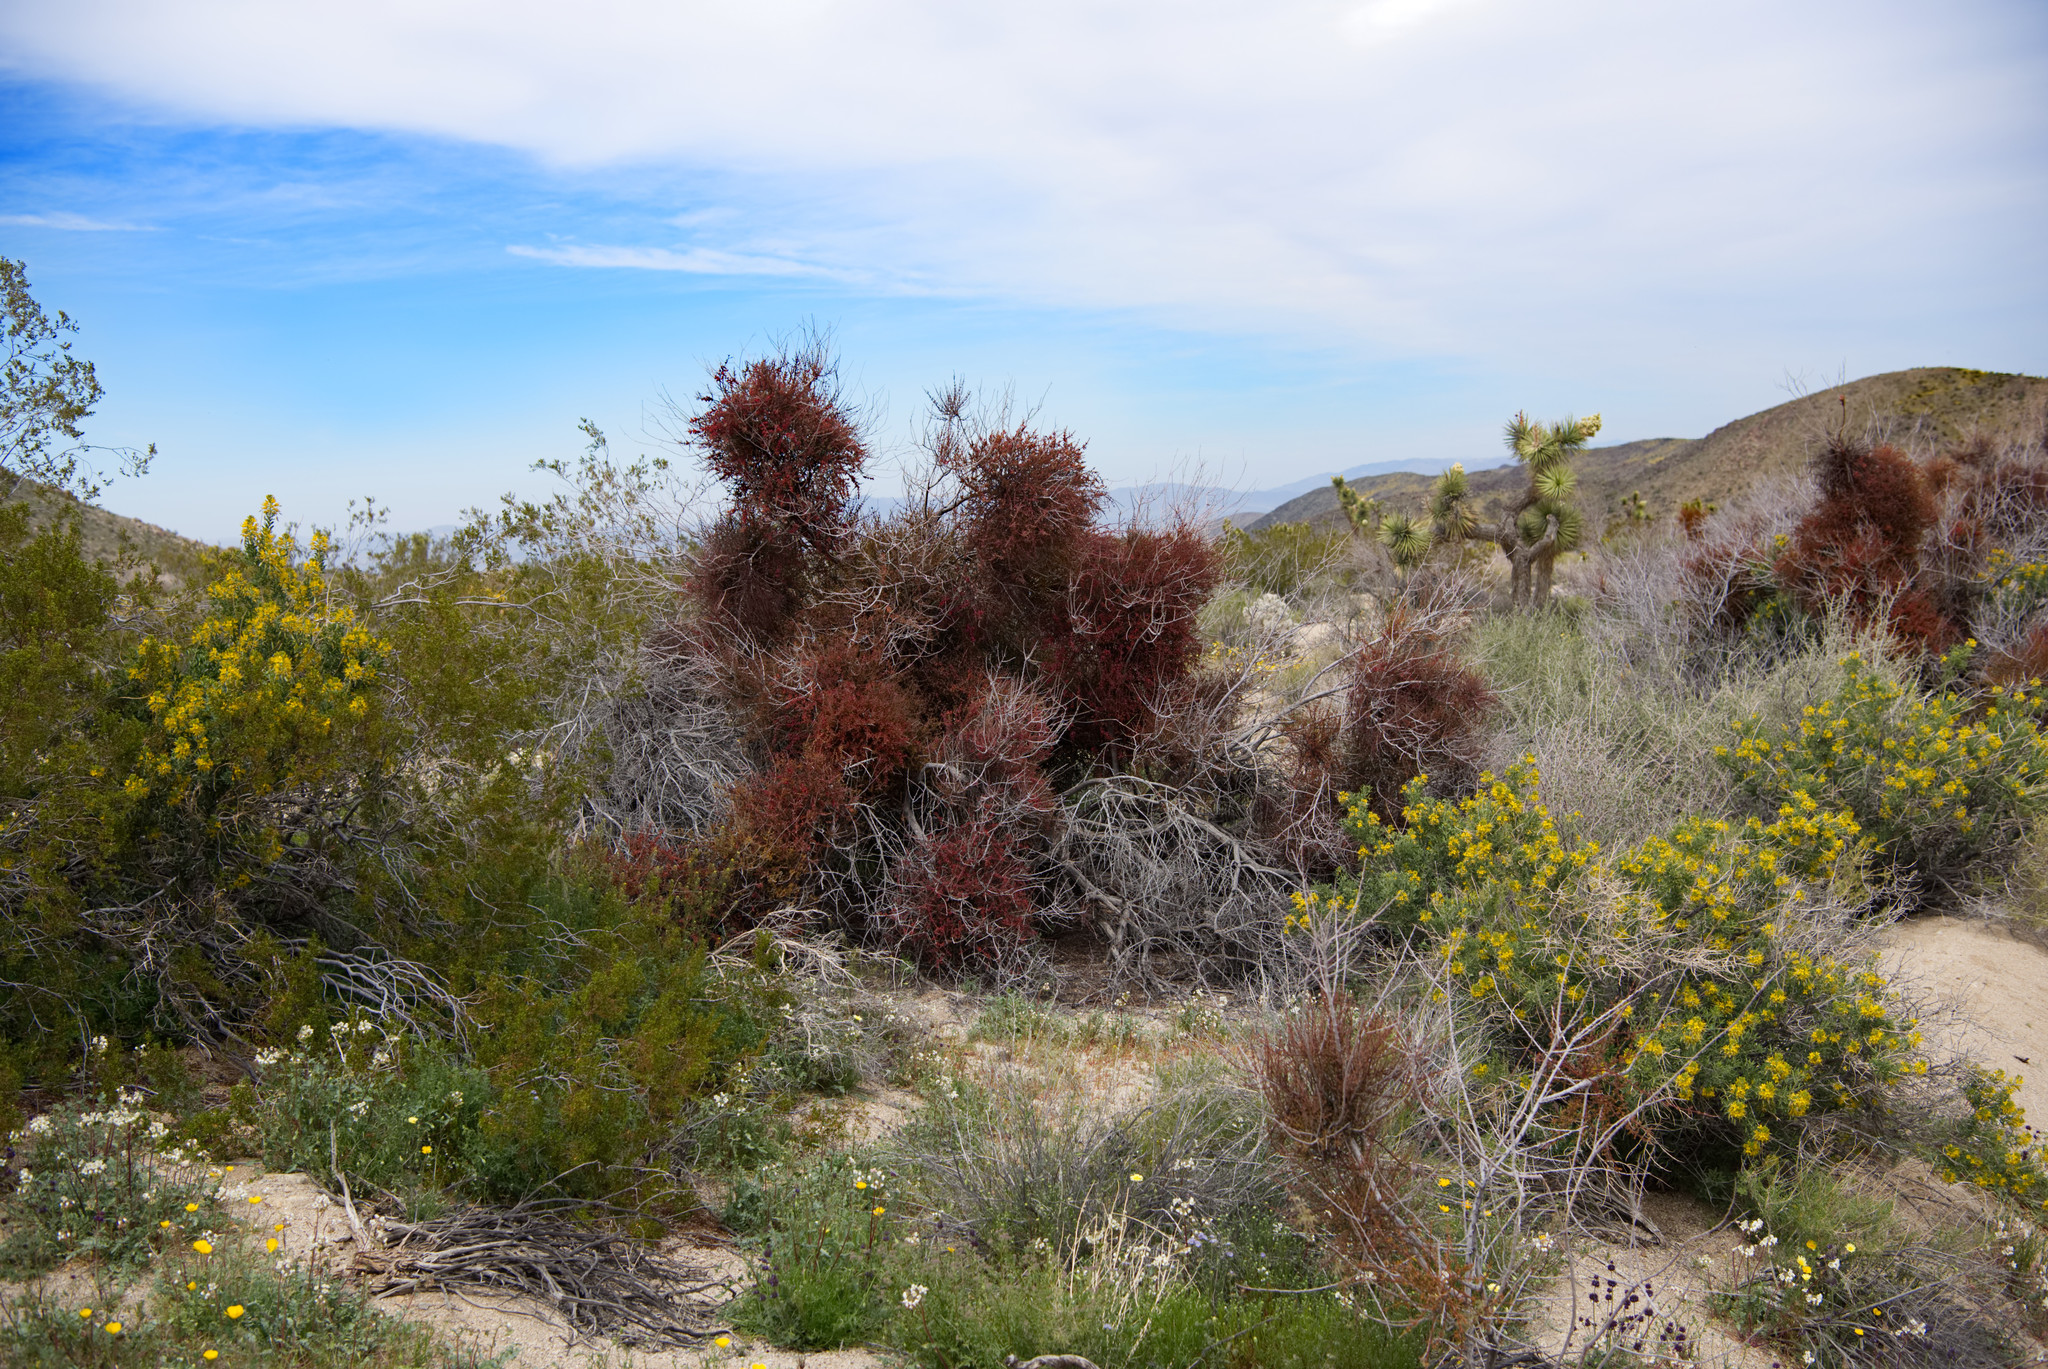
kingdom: Plantae
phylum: Tracheophyta
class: Magnoliopsida
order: Santalales
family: Viscaceae
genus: Phoradendron
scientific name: Phoradendron californicum
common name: Acacia mistletoe
